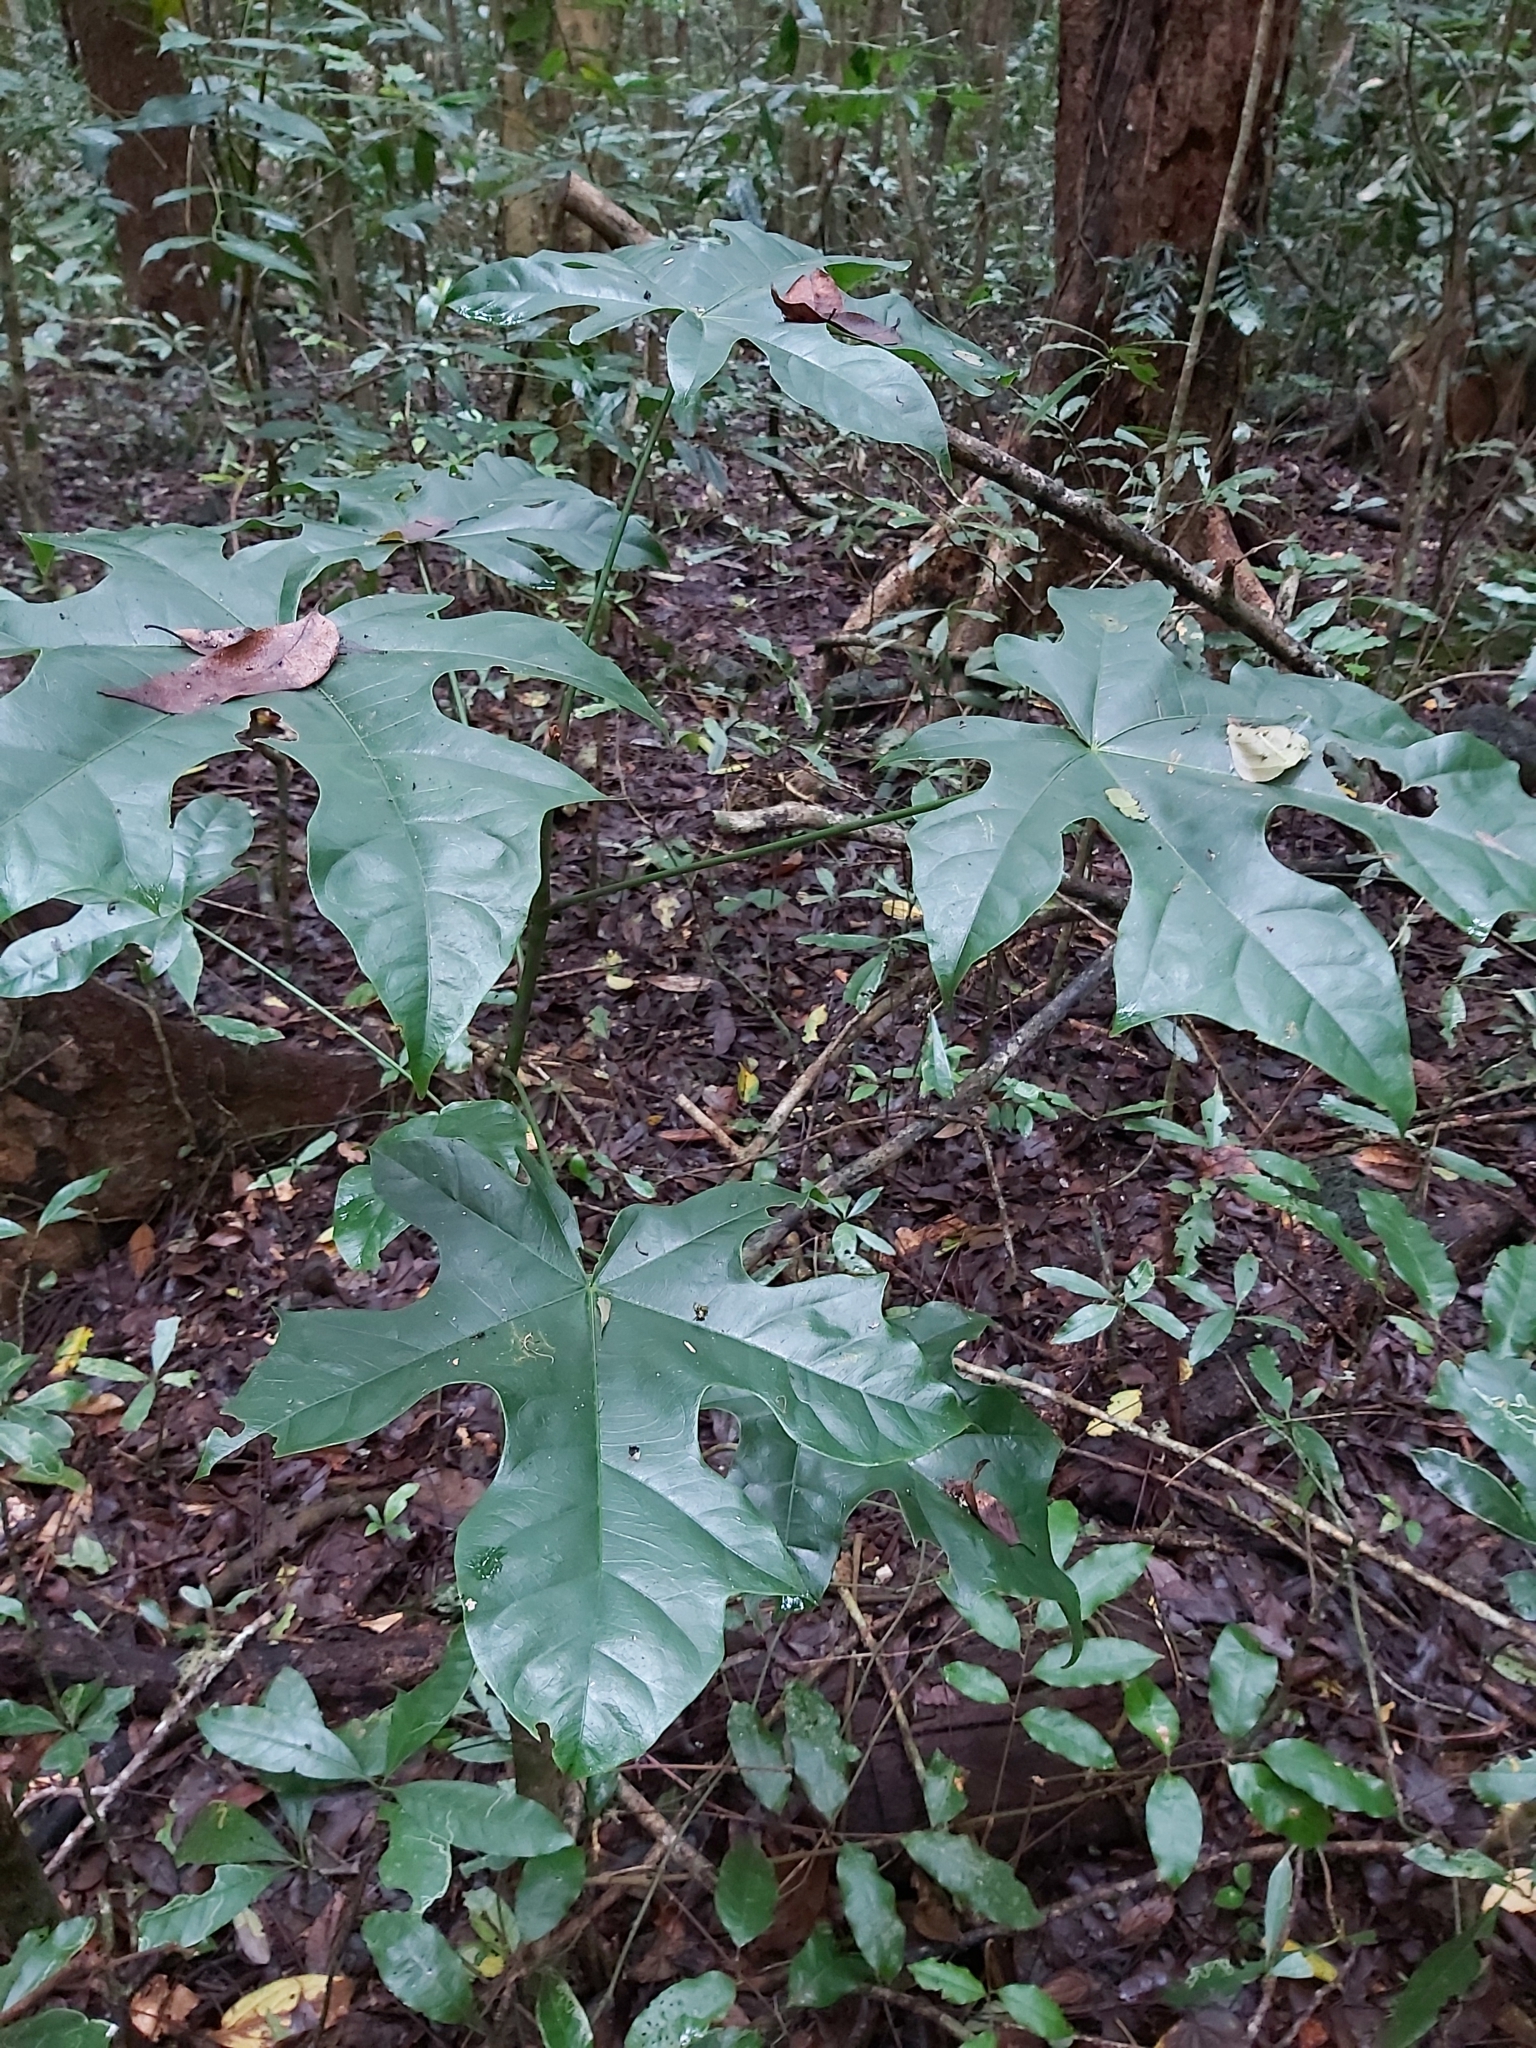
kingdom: Plantae
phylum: Tracheophyta
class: Magnoliopsida
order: Malvales
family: Malvaceae
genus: Brachychiton
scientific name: Brachychiton acerifolius
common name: Illawarra flame tree
